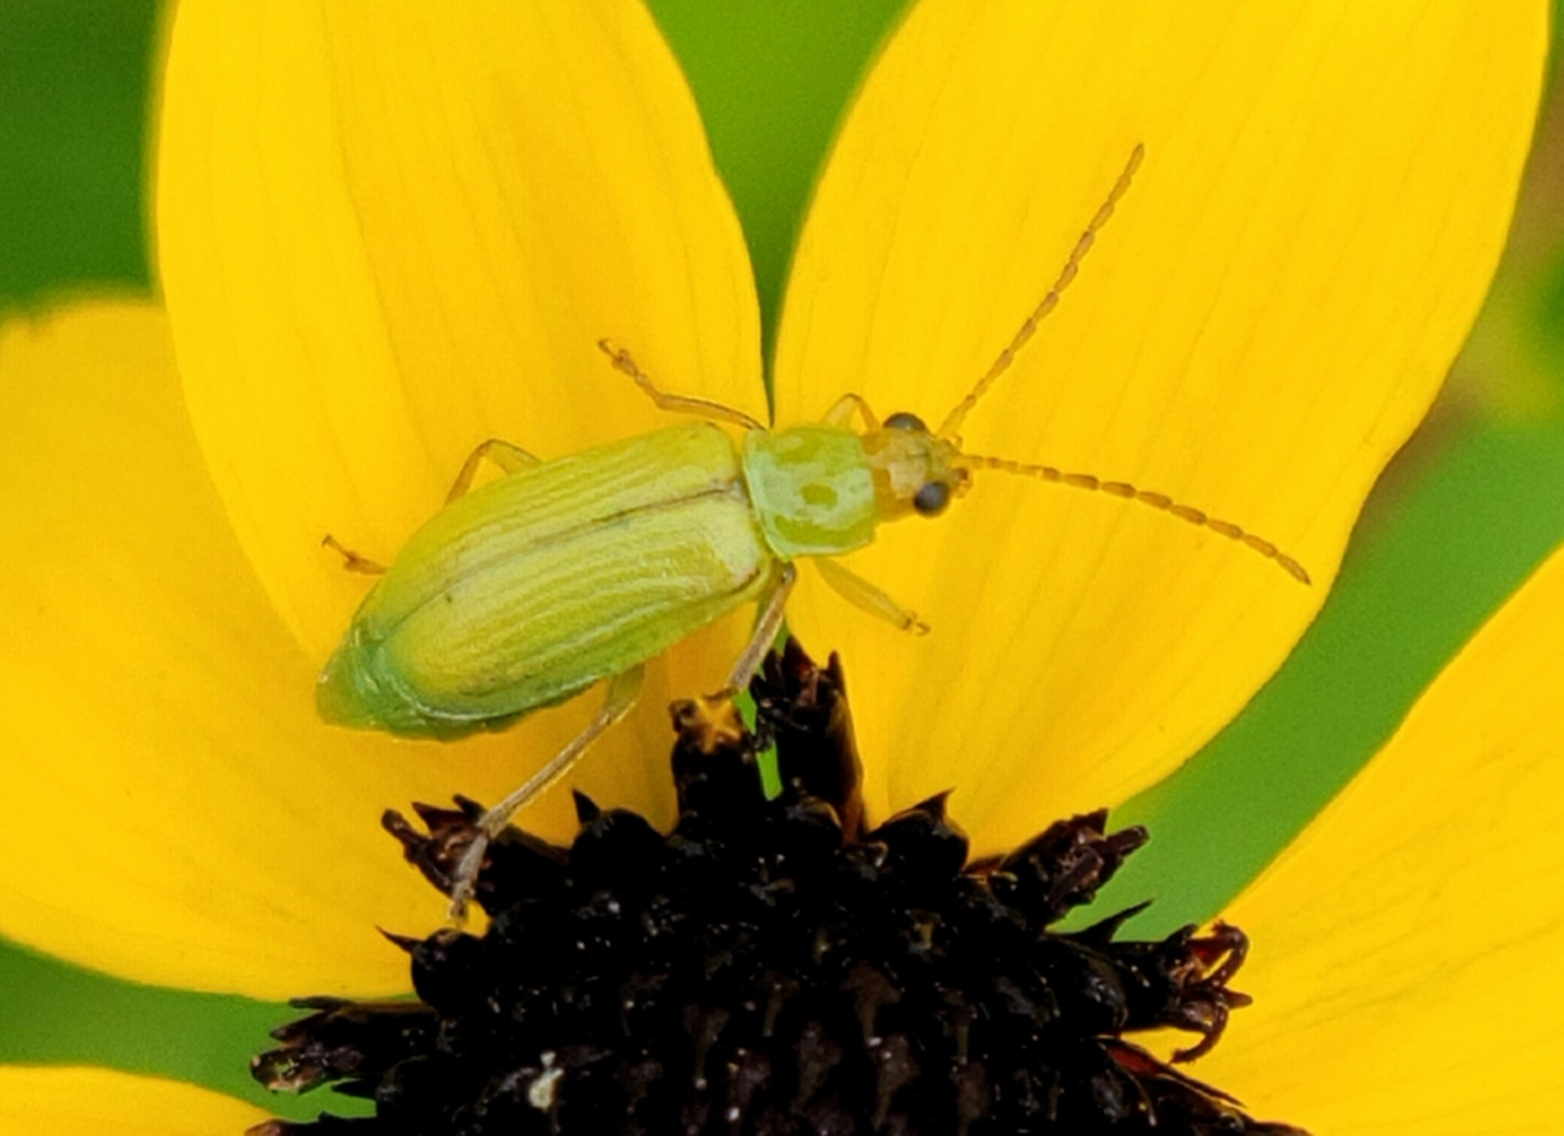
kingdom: Animalia
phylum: Arthropoda
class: Insecta
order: Coleoptera
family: Chrysomelidae
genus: Diabrotica
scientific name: Diabrotica barberi
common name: Northern corn rootworm
